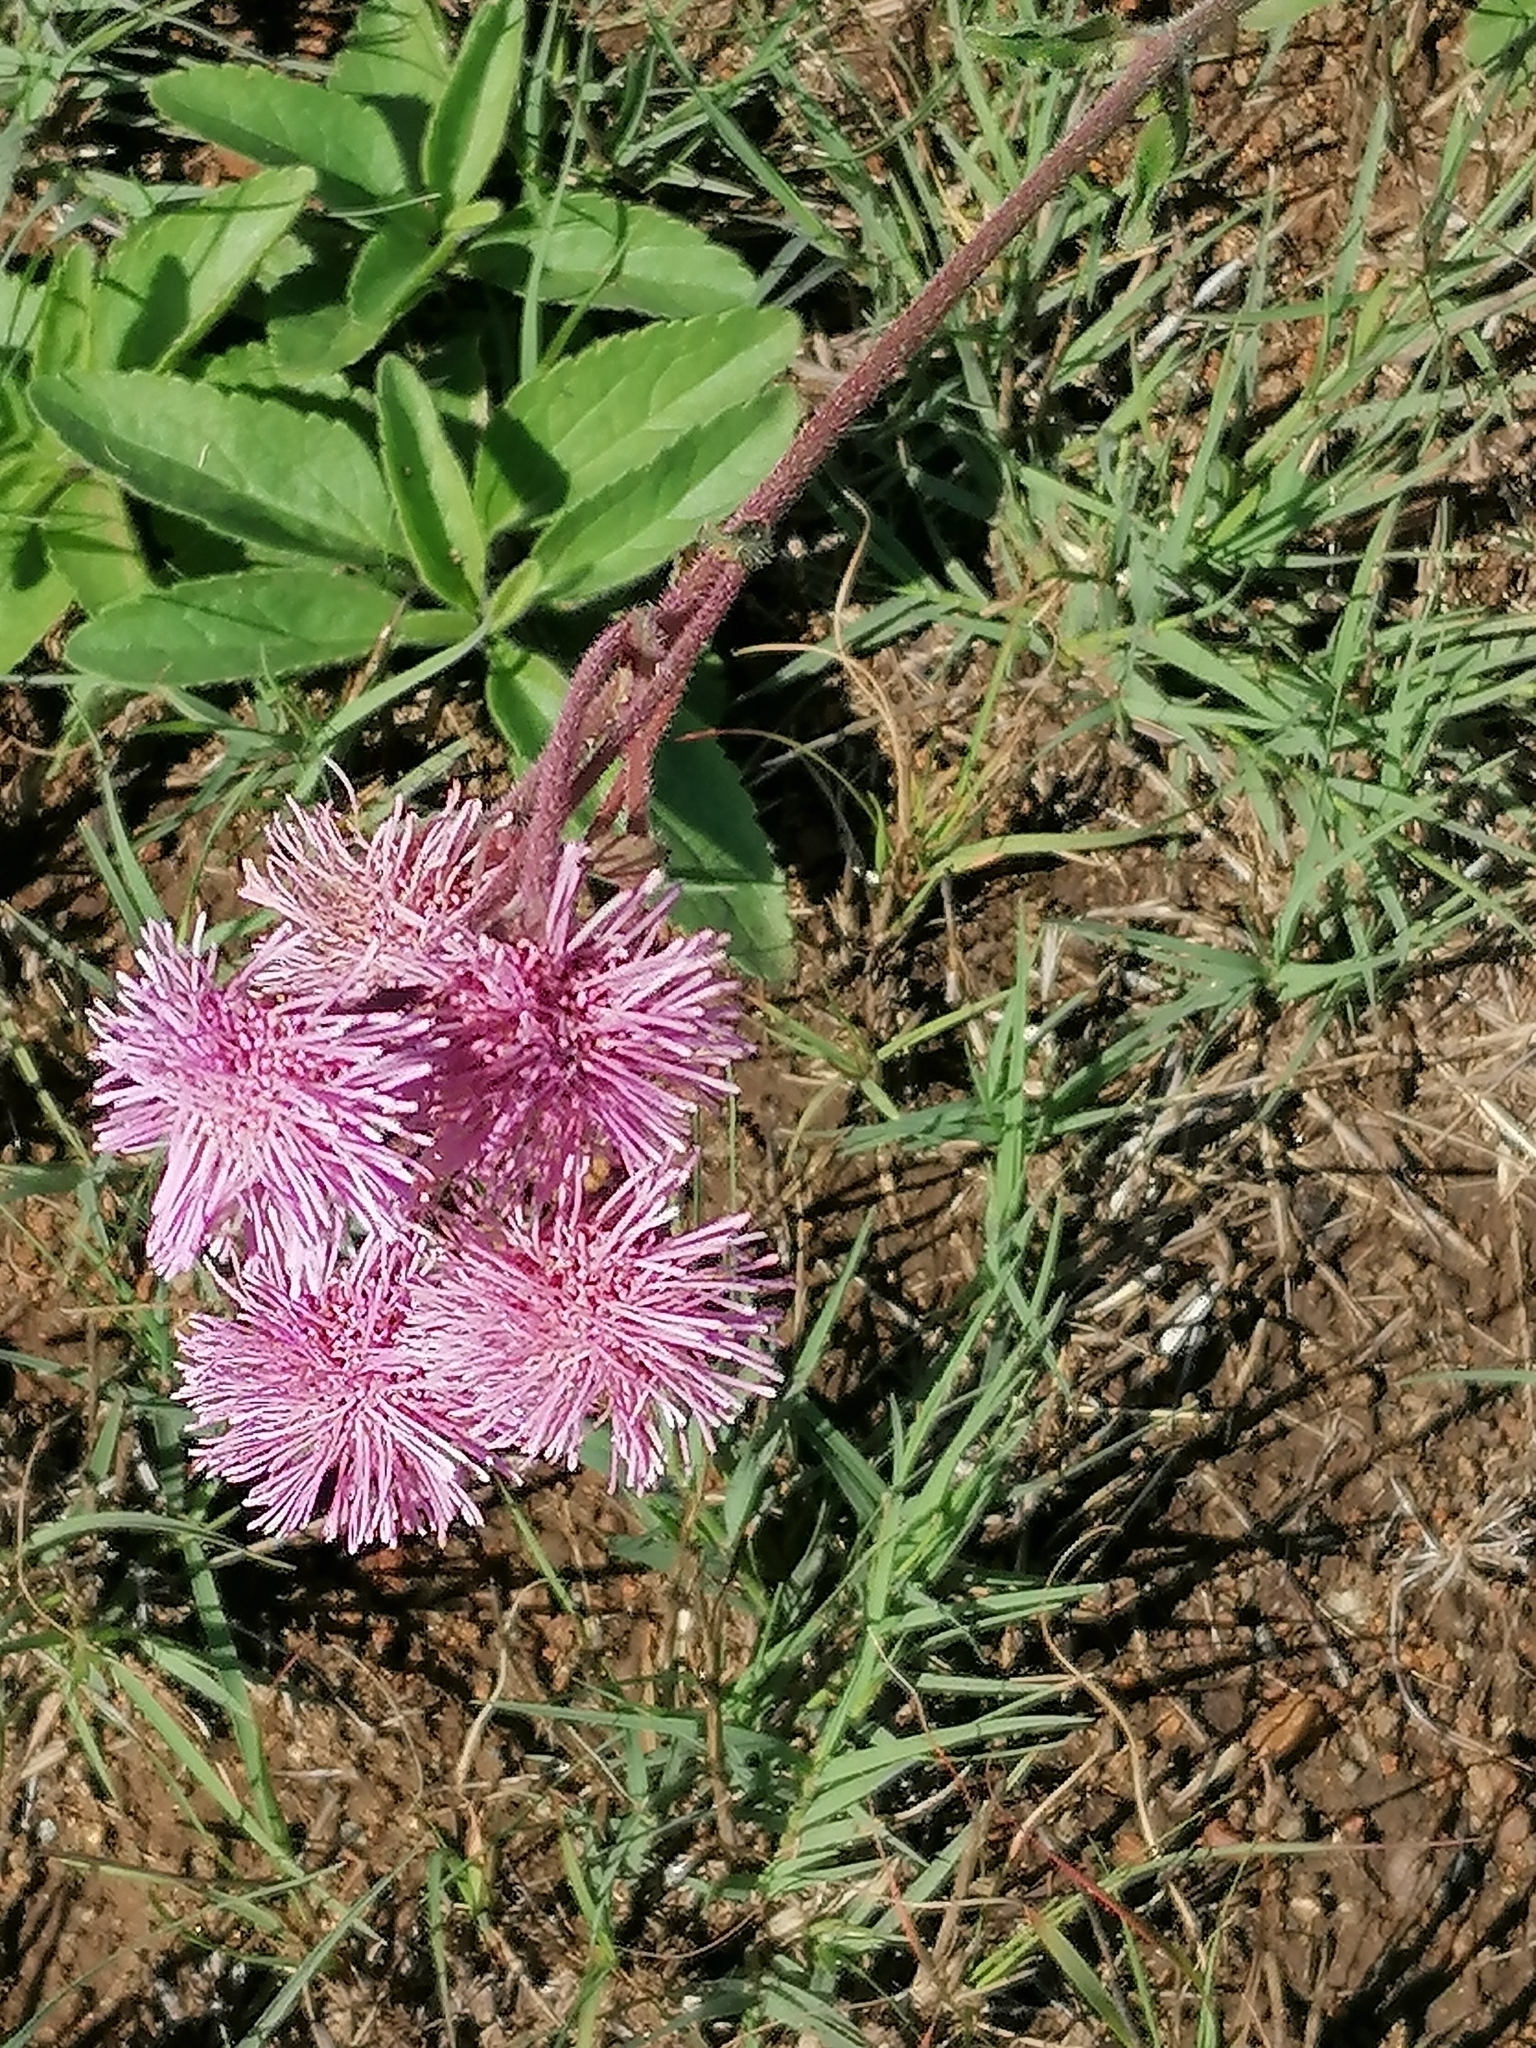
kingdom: Plantae
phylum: Tracheophyta
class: Magnoliopsida
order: Asterales
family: Asteraceae
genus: Campuloclinium
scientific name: Campuloclinium macrocephalum
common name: Pompomweed
